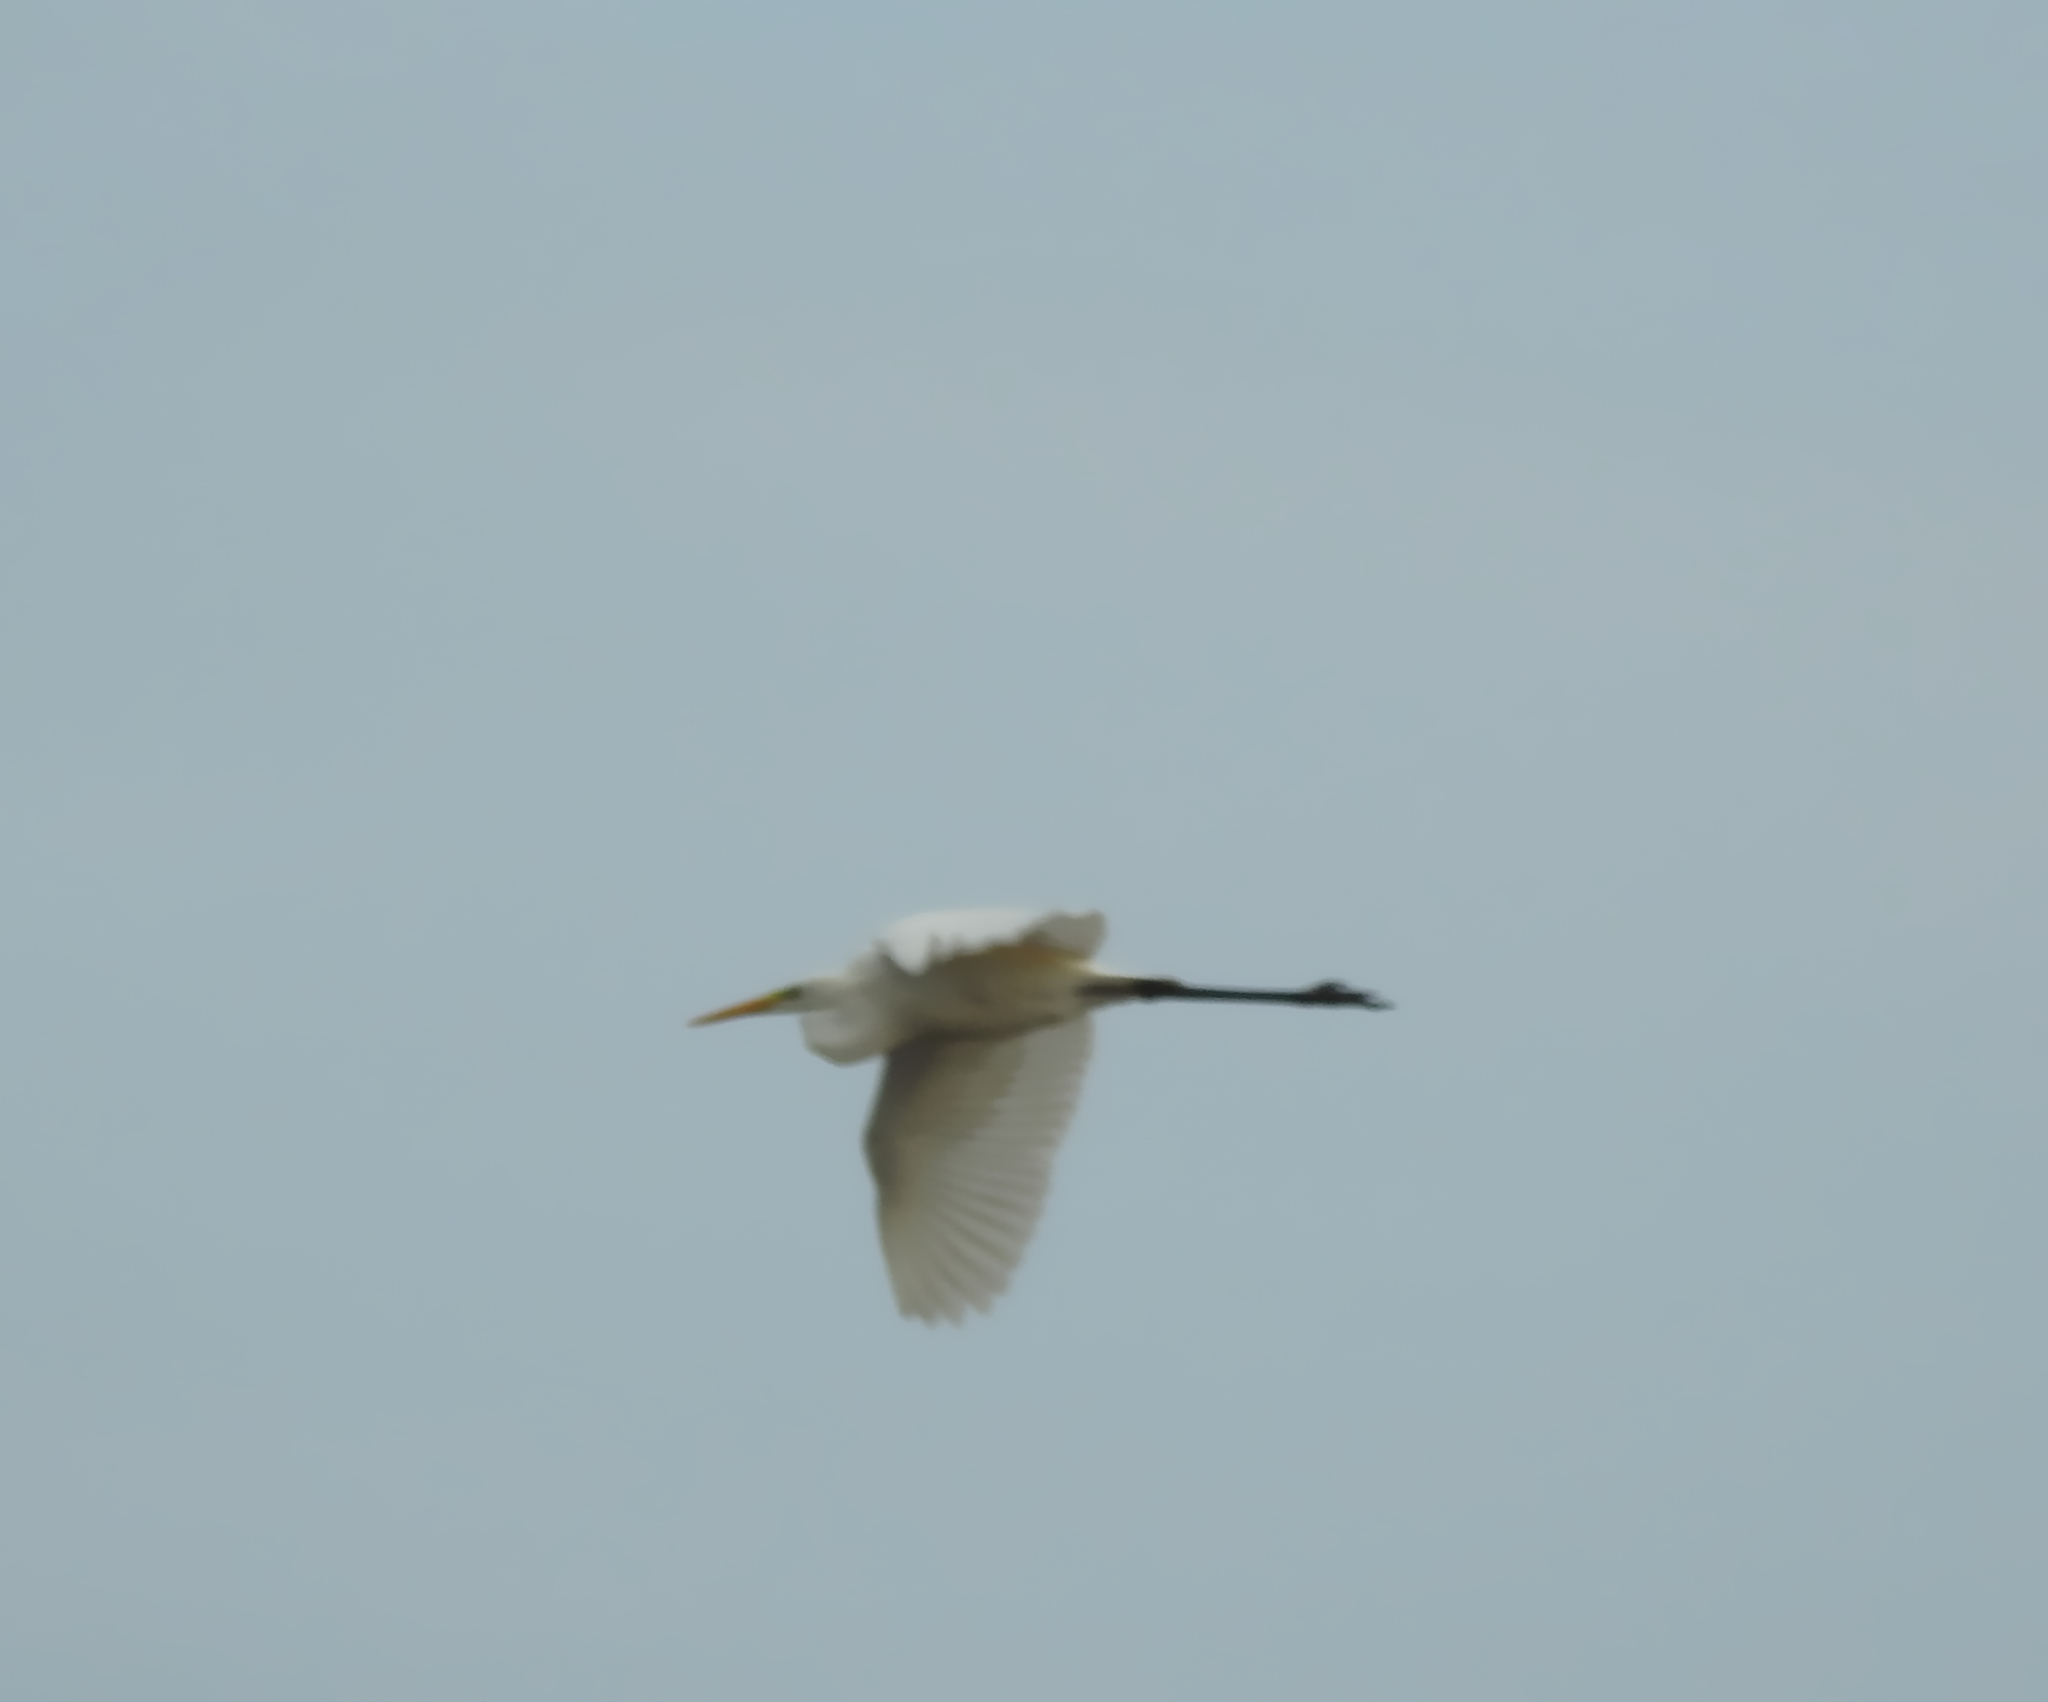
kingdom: Animalia
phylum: Chordata
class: Aves
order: Pelecaniformes
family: Ardeidae
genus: Ardea
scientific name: Ardea alba
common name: Great egret
